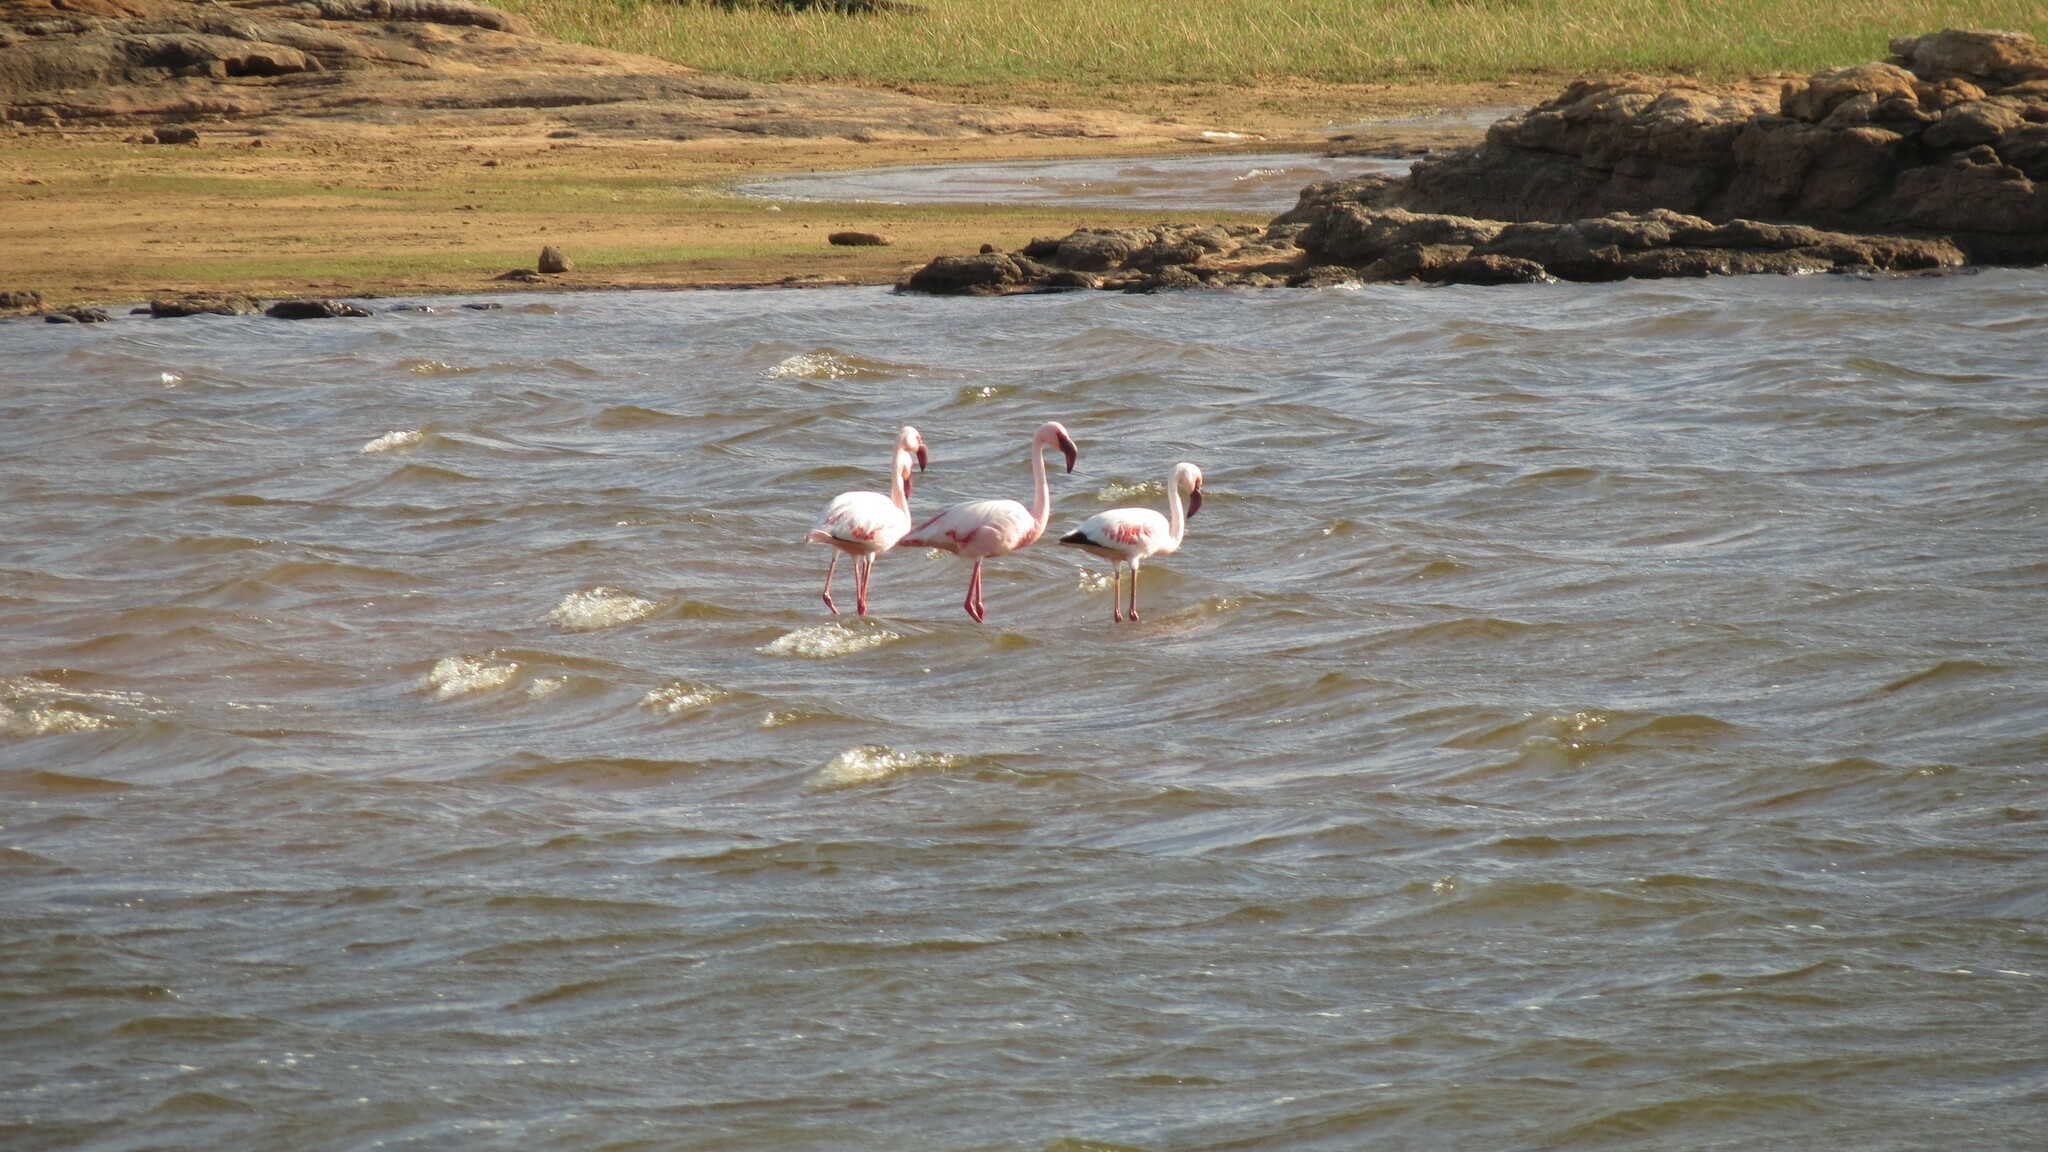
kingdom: Animalia
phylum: Chordata
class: Aves
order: Phoenicopteriformes
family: Phoenicopteridae
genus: Phoeniconaias
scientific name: Phoeniconaias minor
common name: Lesser flamingo
